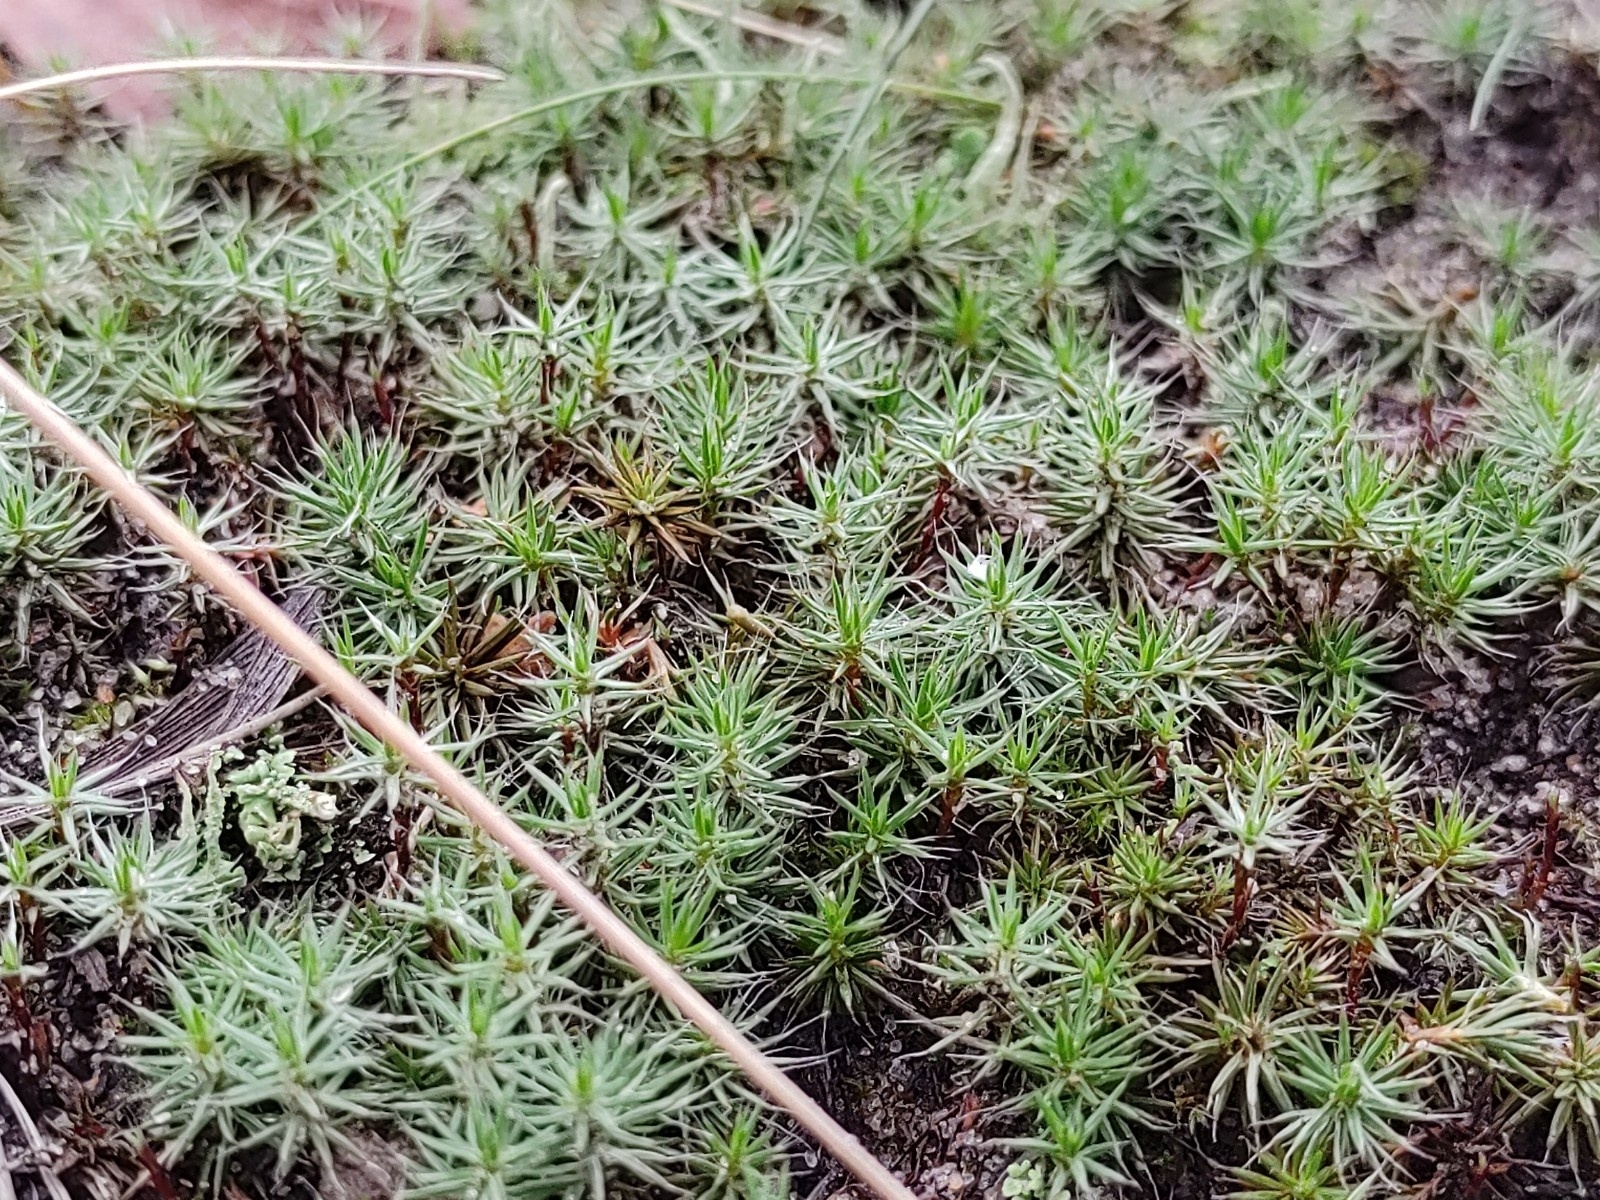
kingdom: Plantae
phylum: Bryophyta
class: Polytrichopsida
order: Polytrichales
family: Polytrichaceae
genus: Polytrichum
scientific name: Polytrichum piliferum
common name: Bristly haircap
